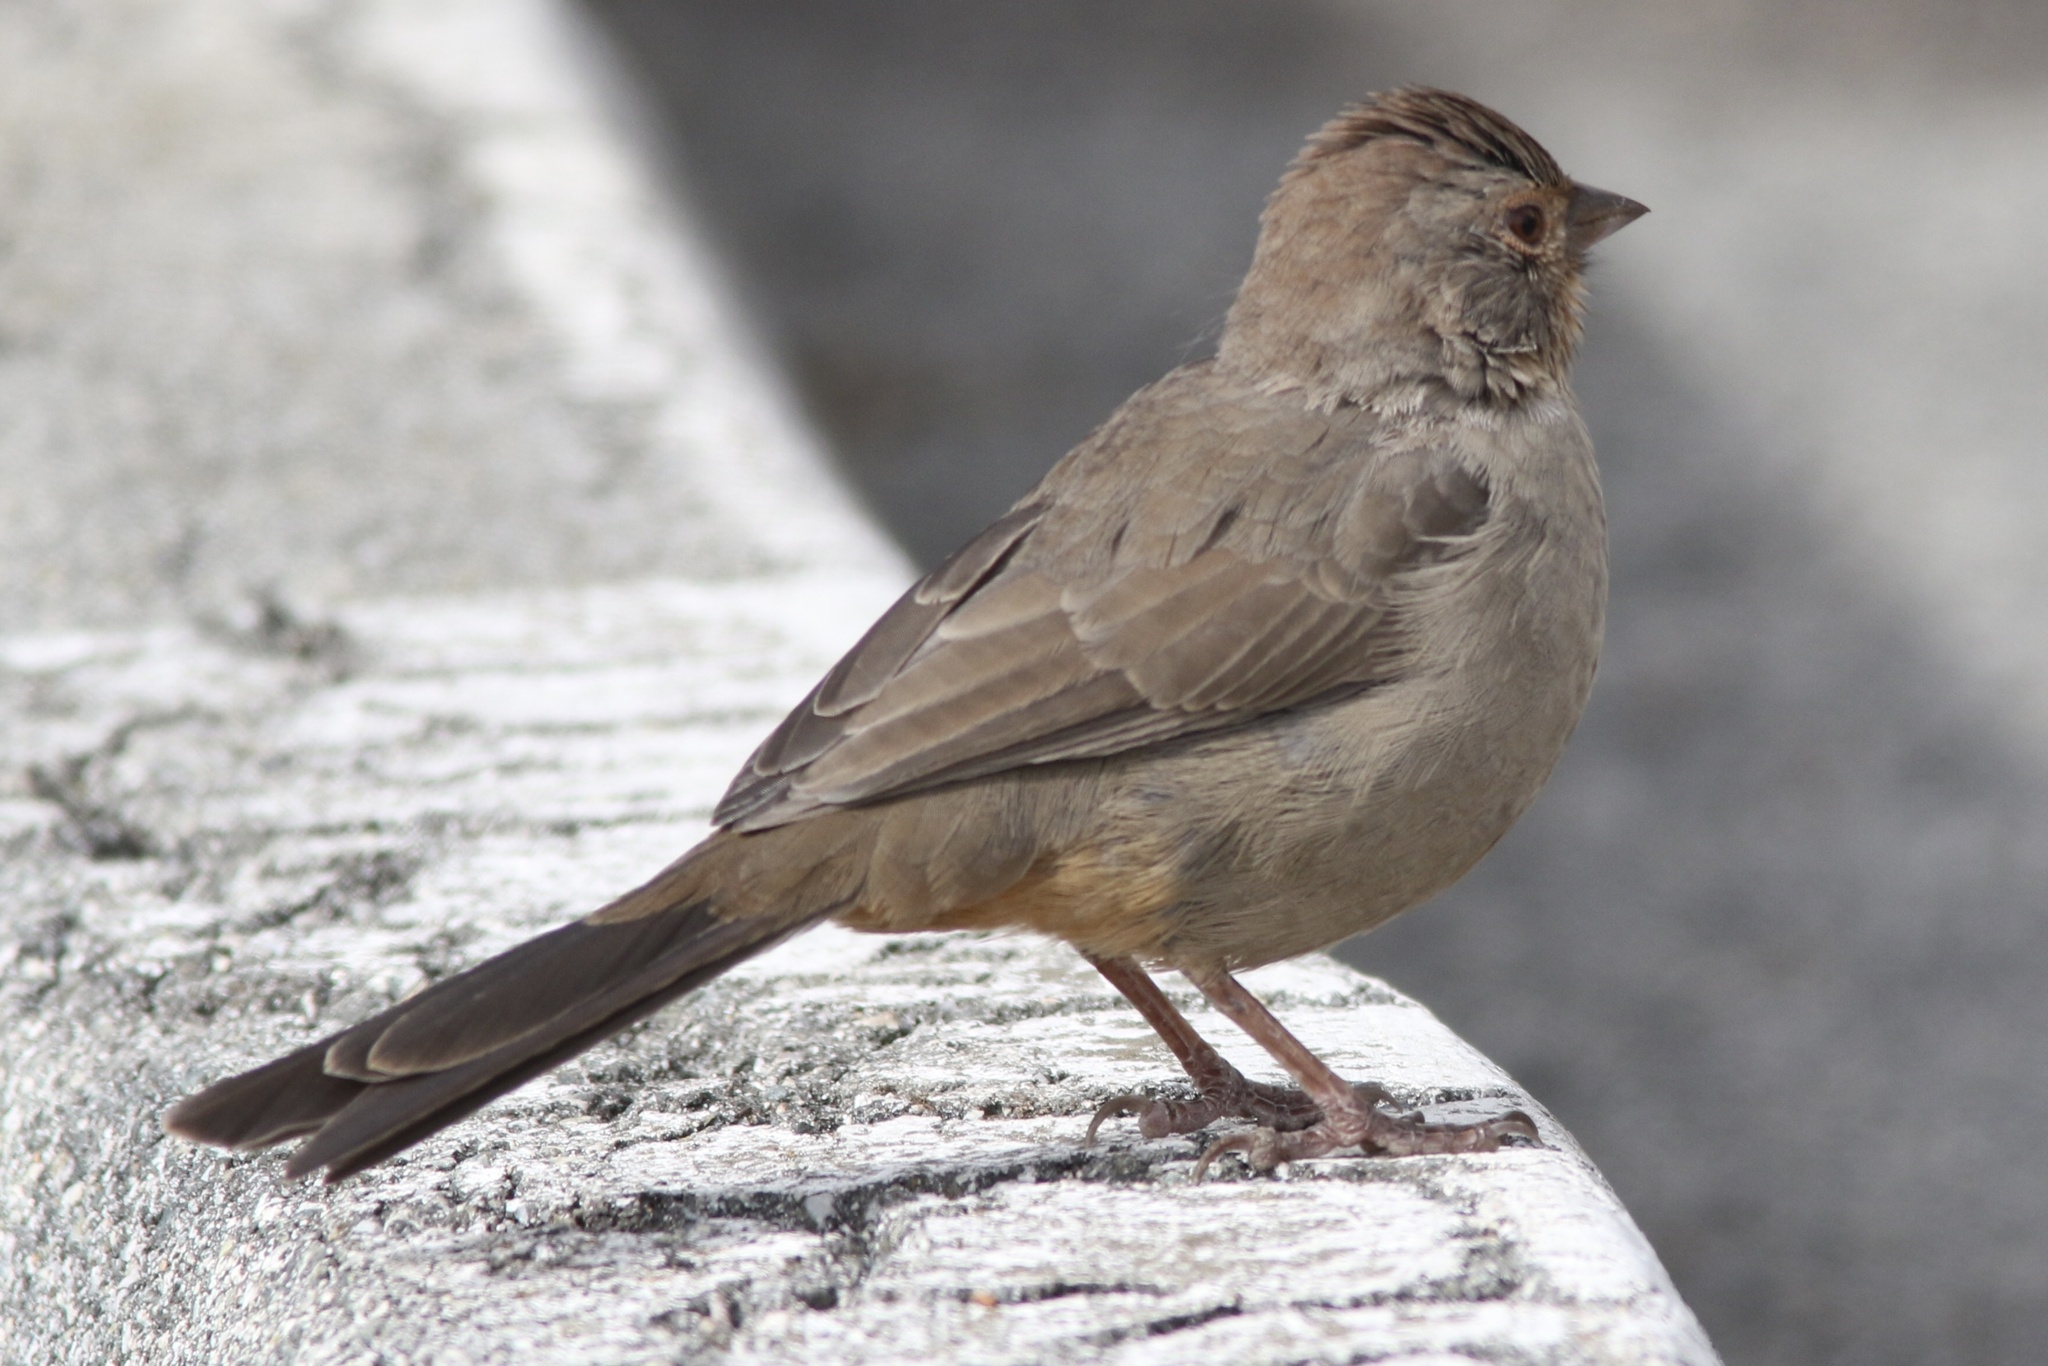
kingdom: Animalia
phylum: Chordata
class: Aves
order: Passeriformes
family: Passerellidae
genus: Melozone
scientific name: Melozone crissalis
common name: California towhee
